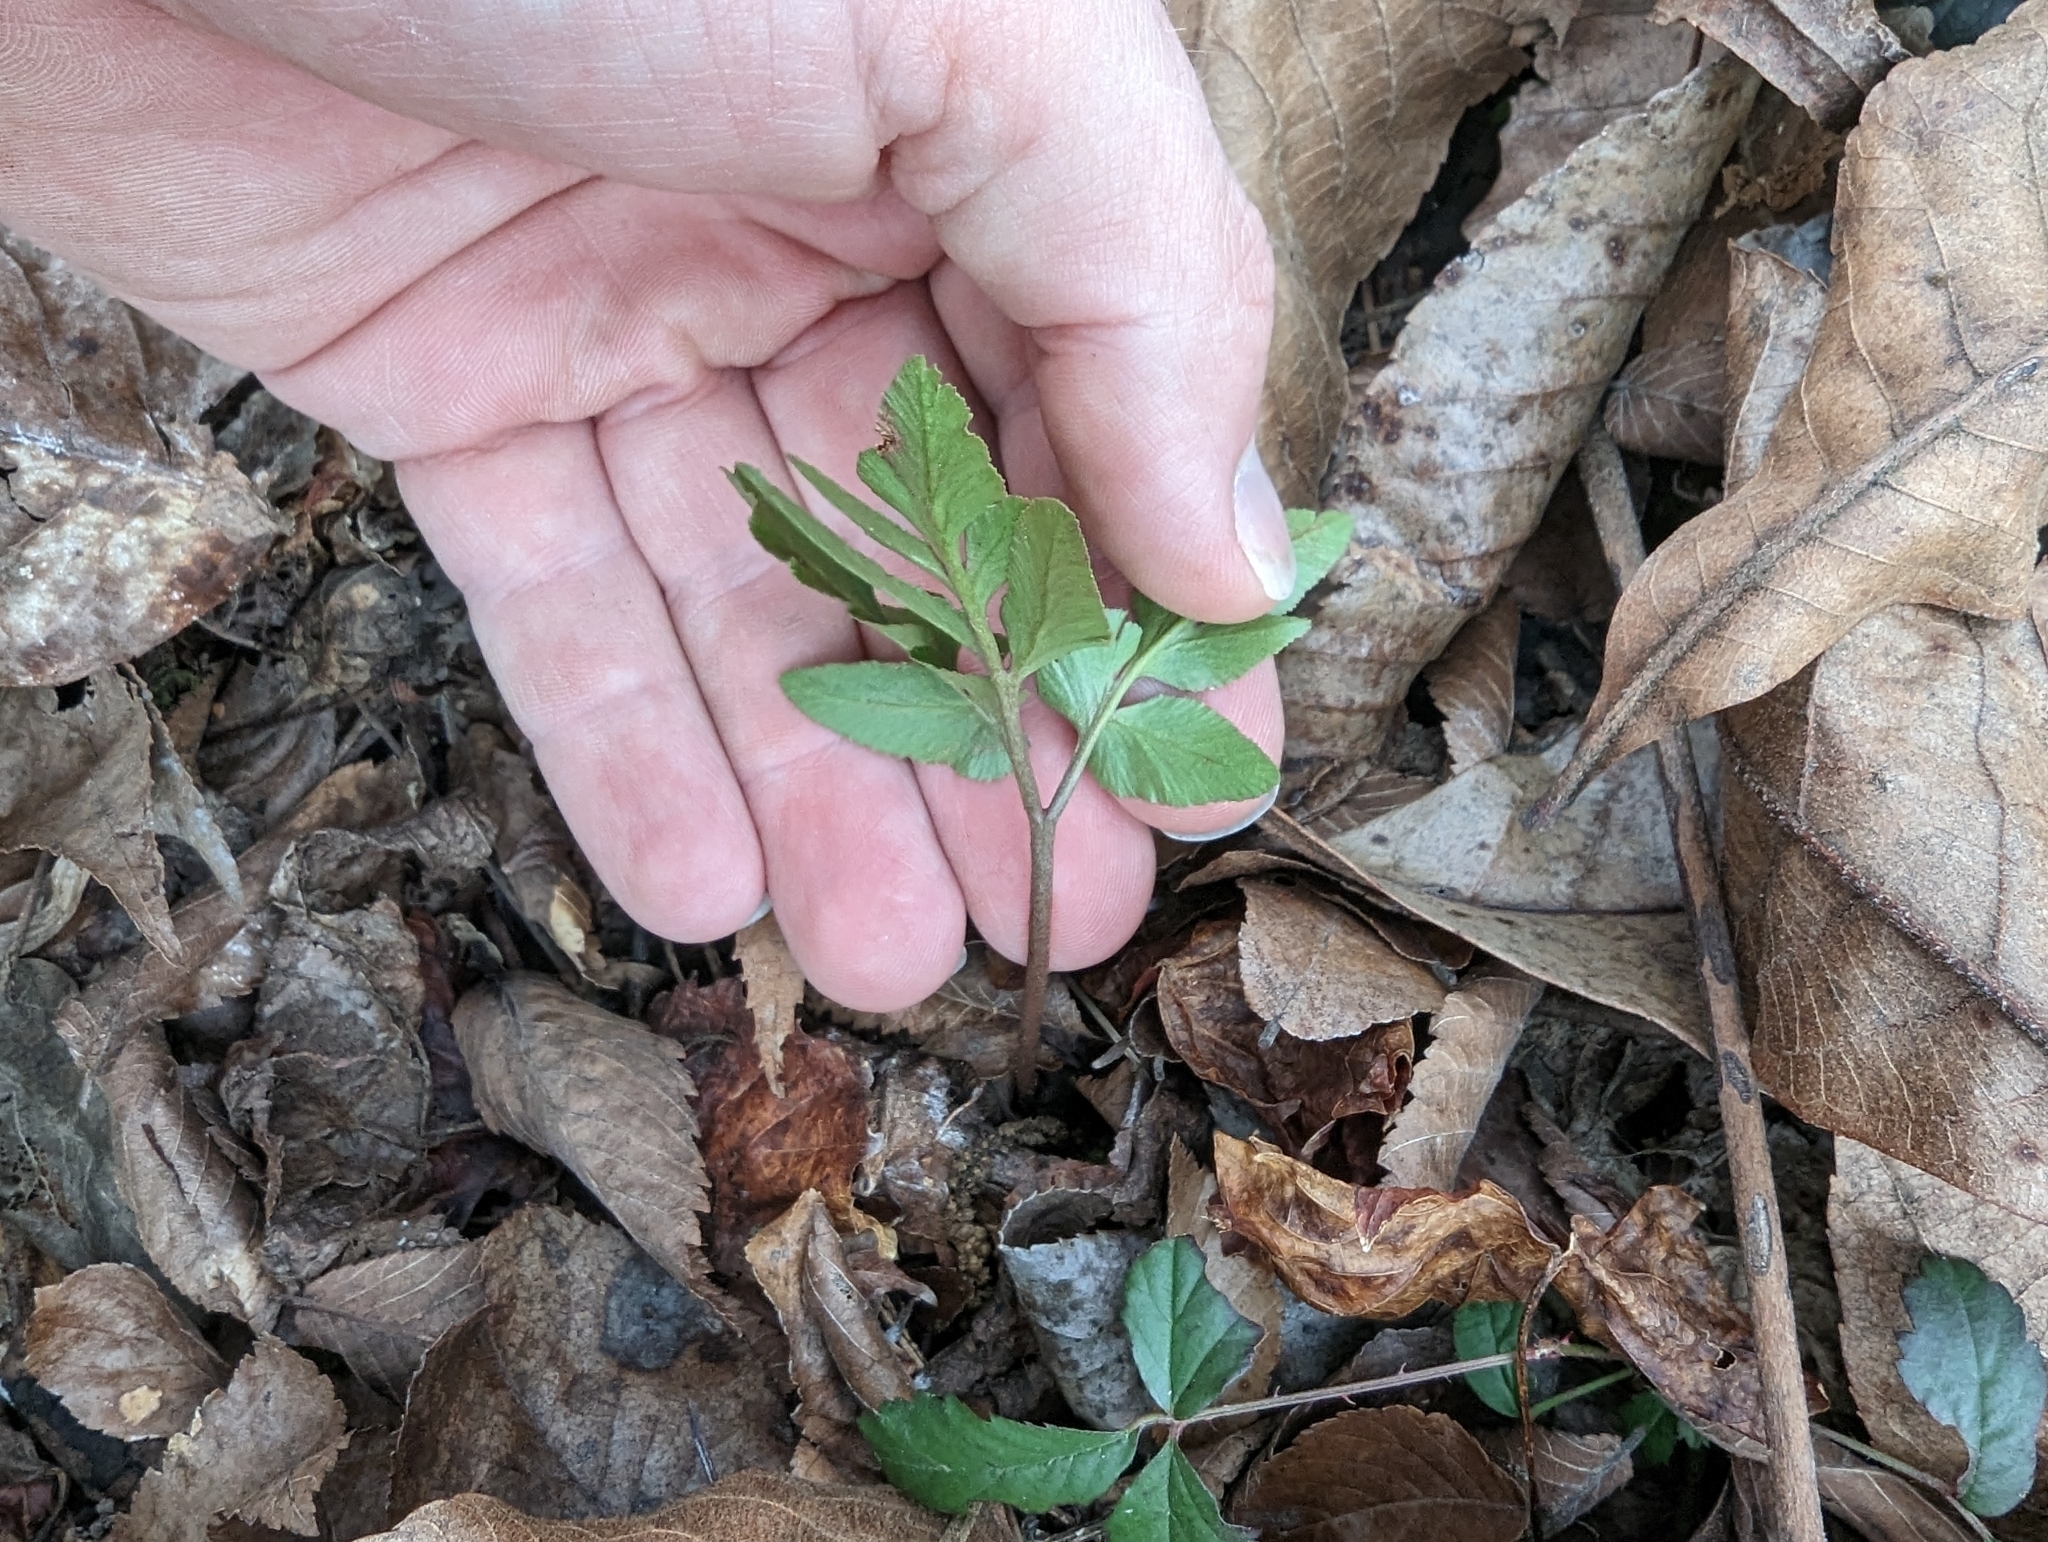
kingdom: Plantae
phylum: Tracheophyta
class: Polypodiopsida
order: Ophioglossales
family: Ophioglossaceae
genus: Sceptridium
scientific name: Sceptridium biternatum
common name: Sparse-lobed grapefern
